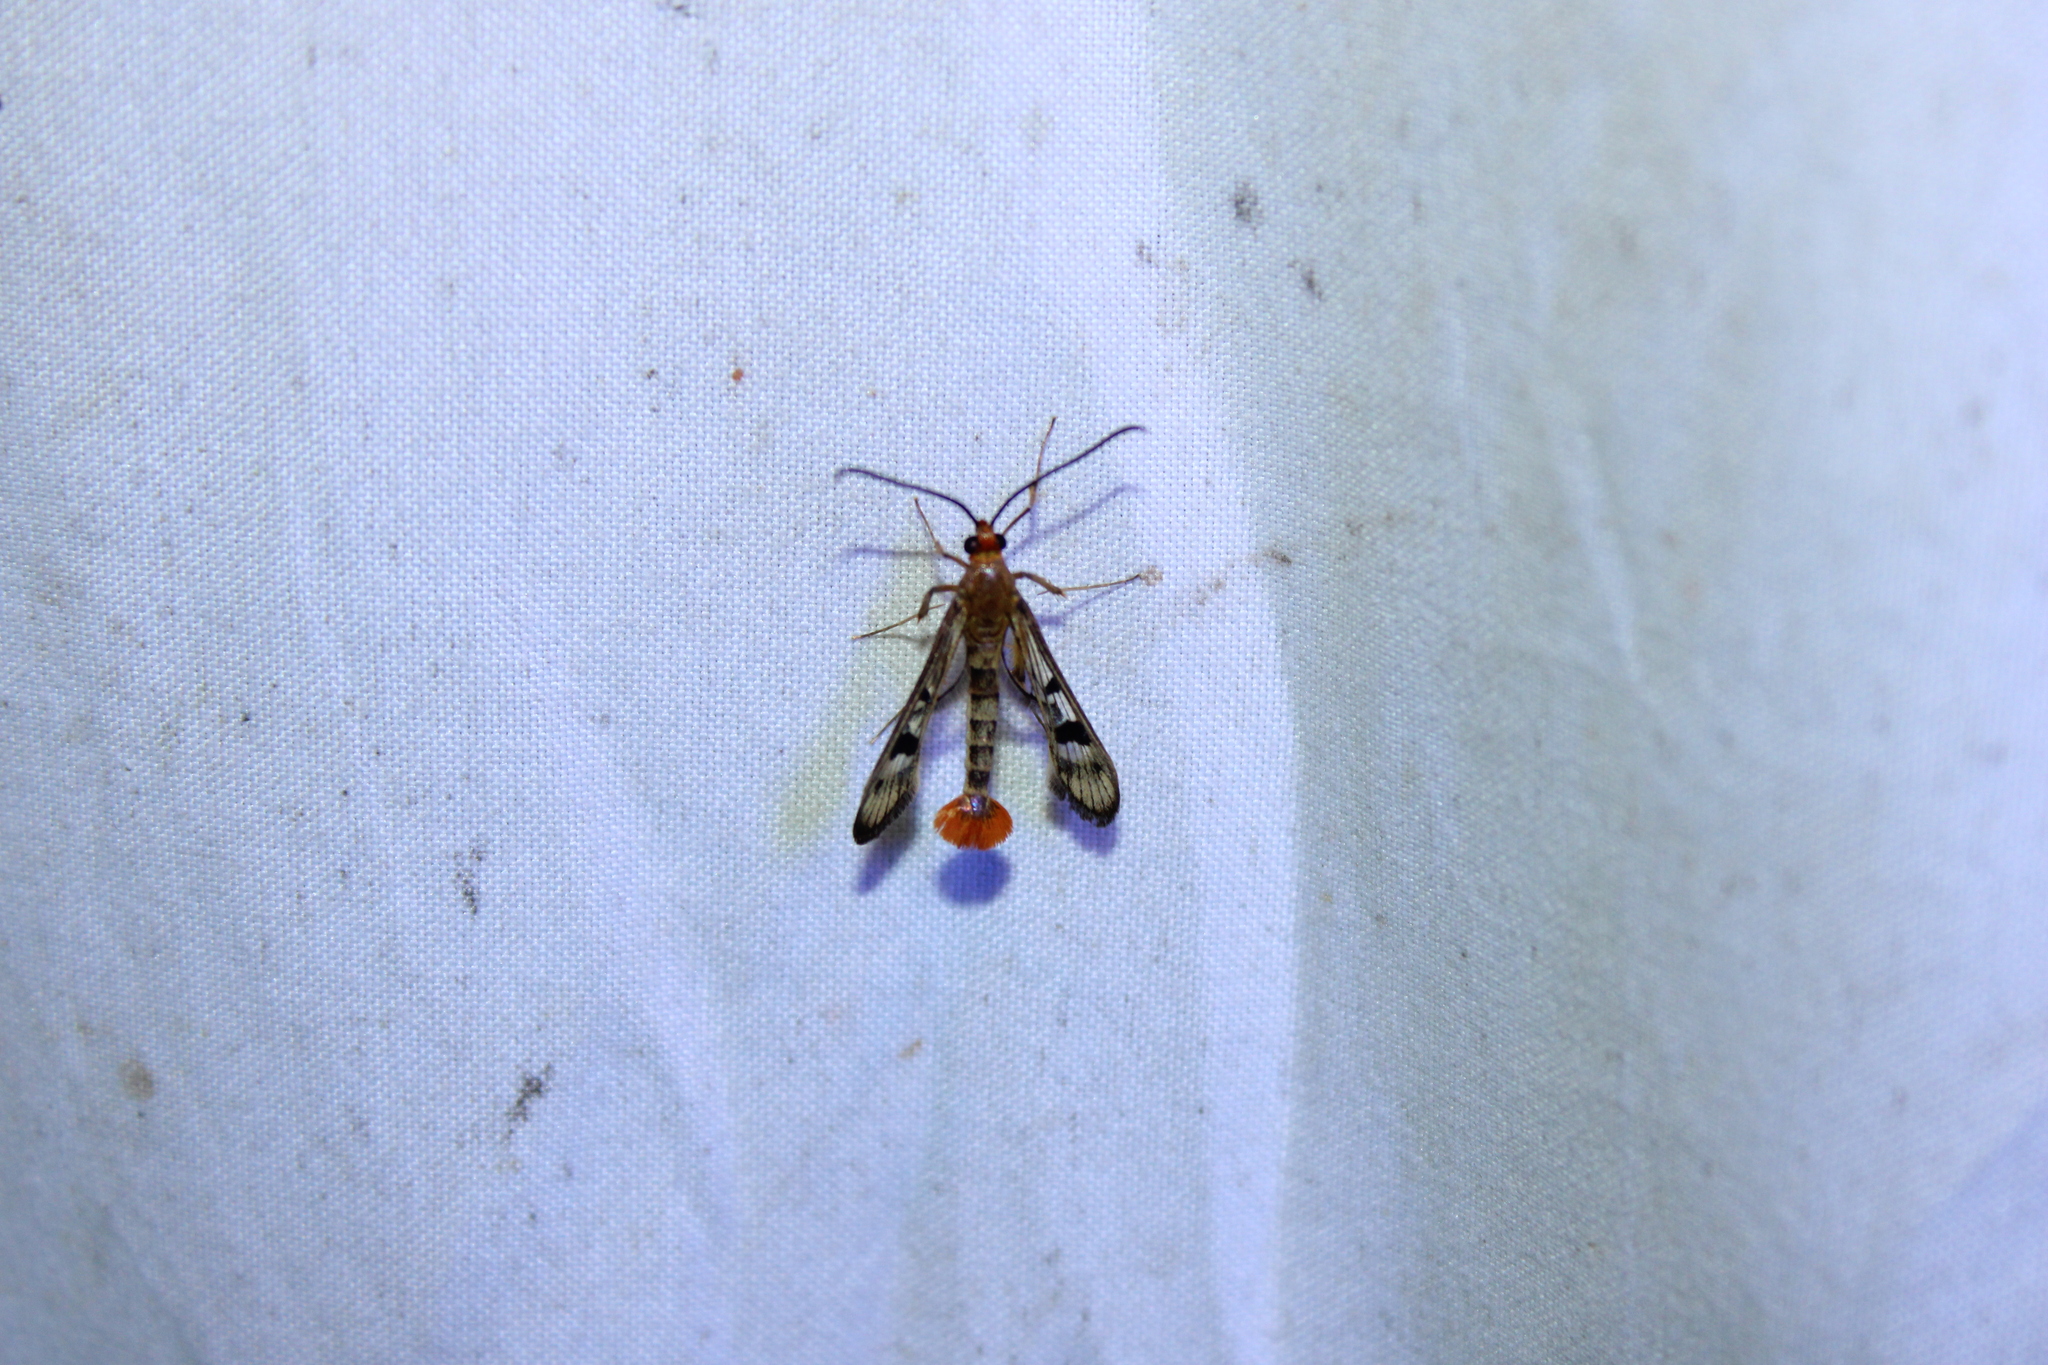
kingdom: Animalia
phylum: Arthropoda
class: Insecta
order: Lepidoptera
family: Sesiidae
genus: Synanthedon
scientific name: Synanthedon acerni
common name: Maple callus borer moth
